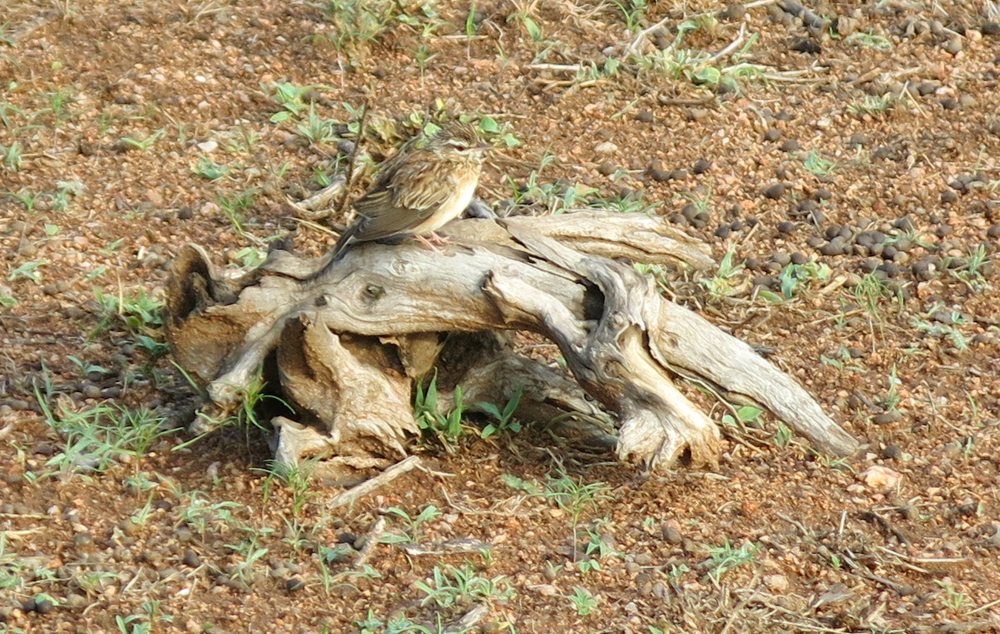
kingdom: Animalia
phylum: Chordata
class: Aves
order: Passeriformes
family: Alaudidae
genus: Calendulauda
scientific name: Calendulauda sabota
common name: Sabota lark
